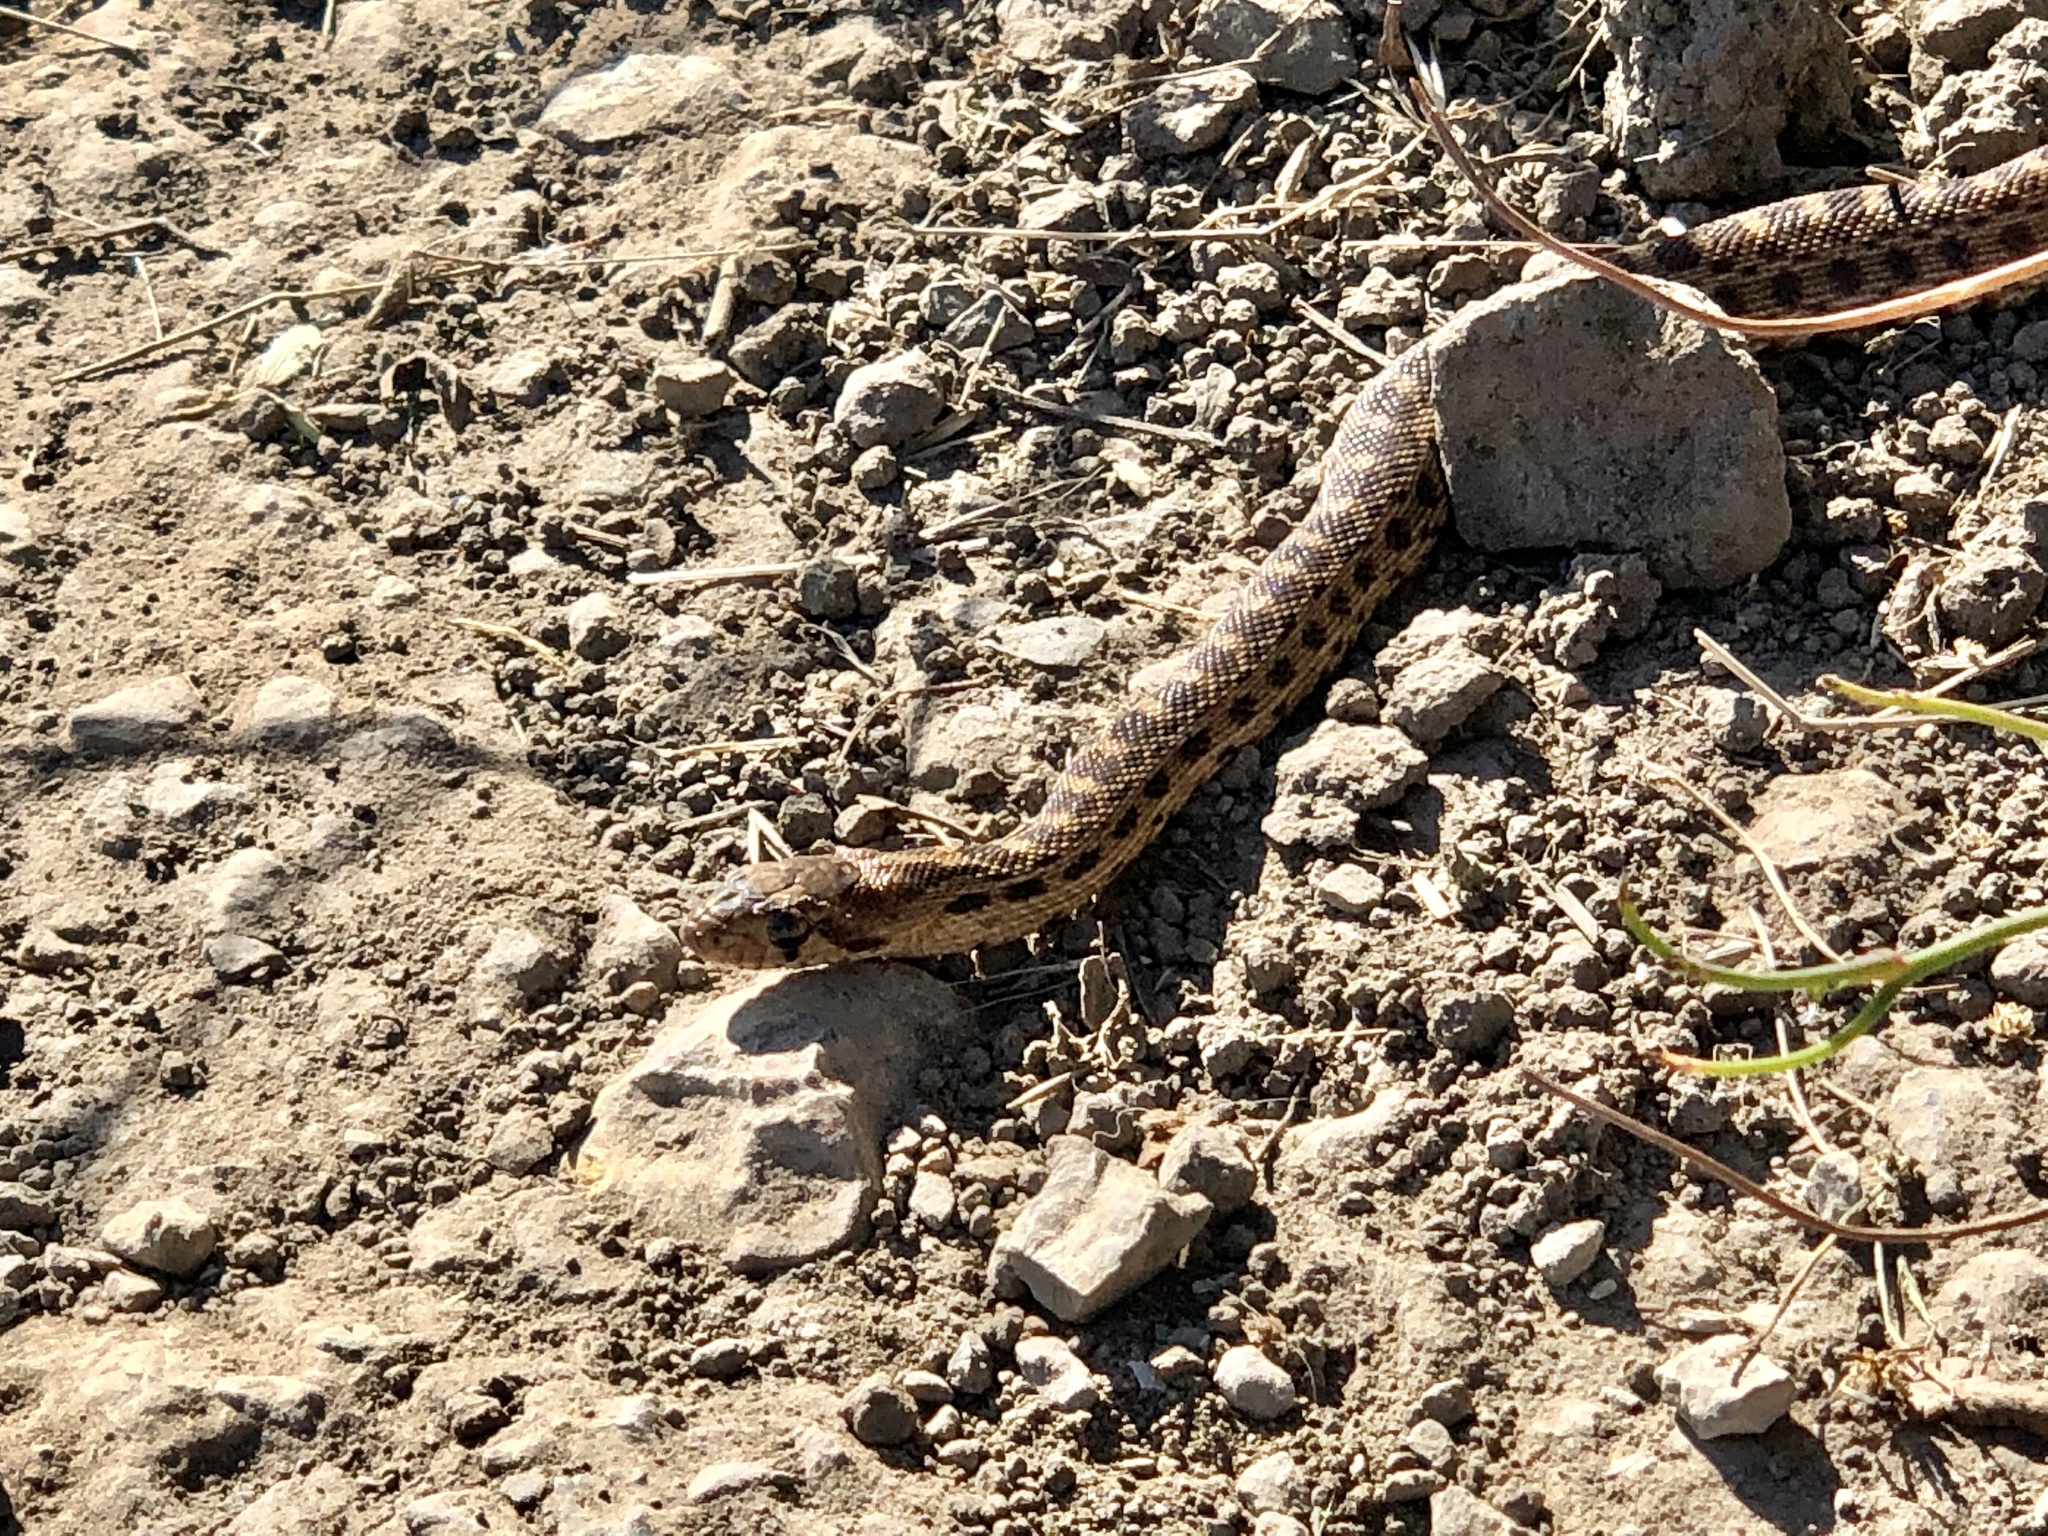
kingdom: Animalia
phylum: Chordata
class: Squamata
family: Colubridae
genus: Pituophis
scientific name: Pituophis catenifer
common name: Gopher snake
